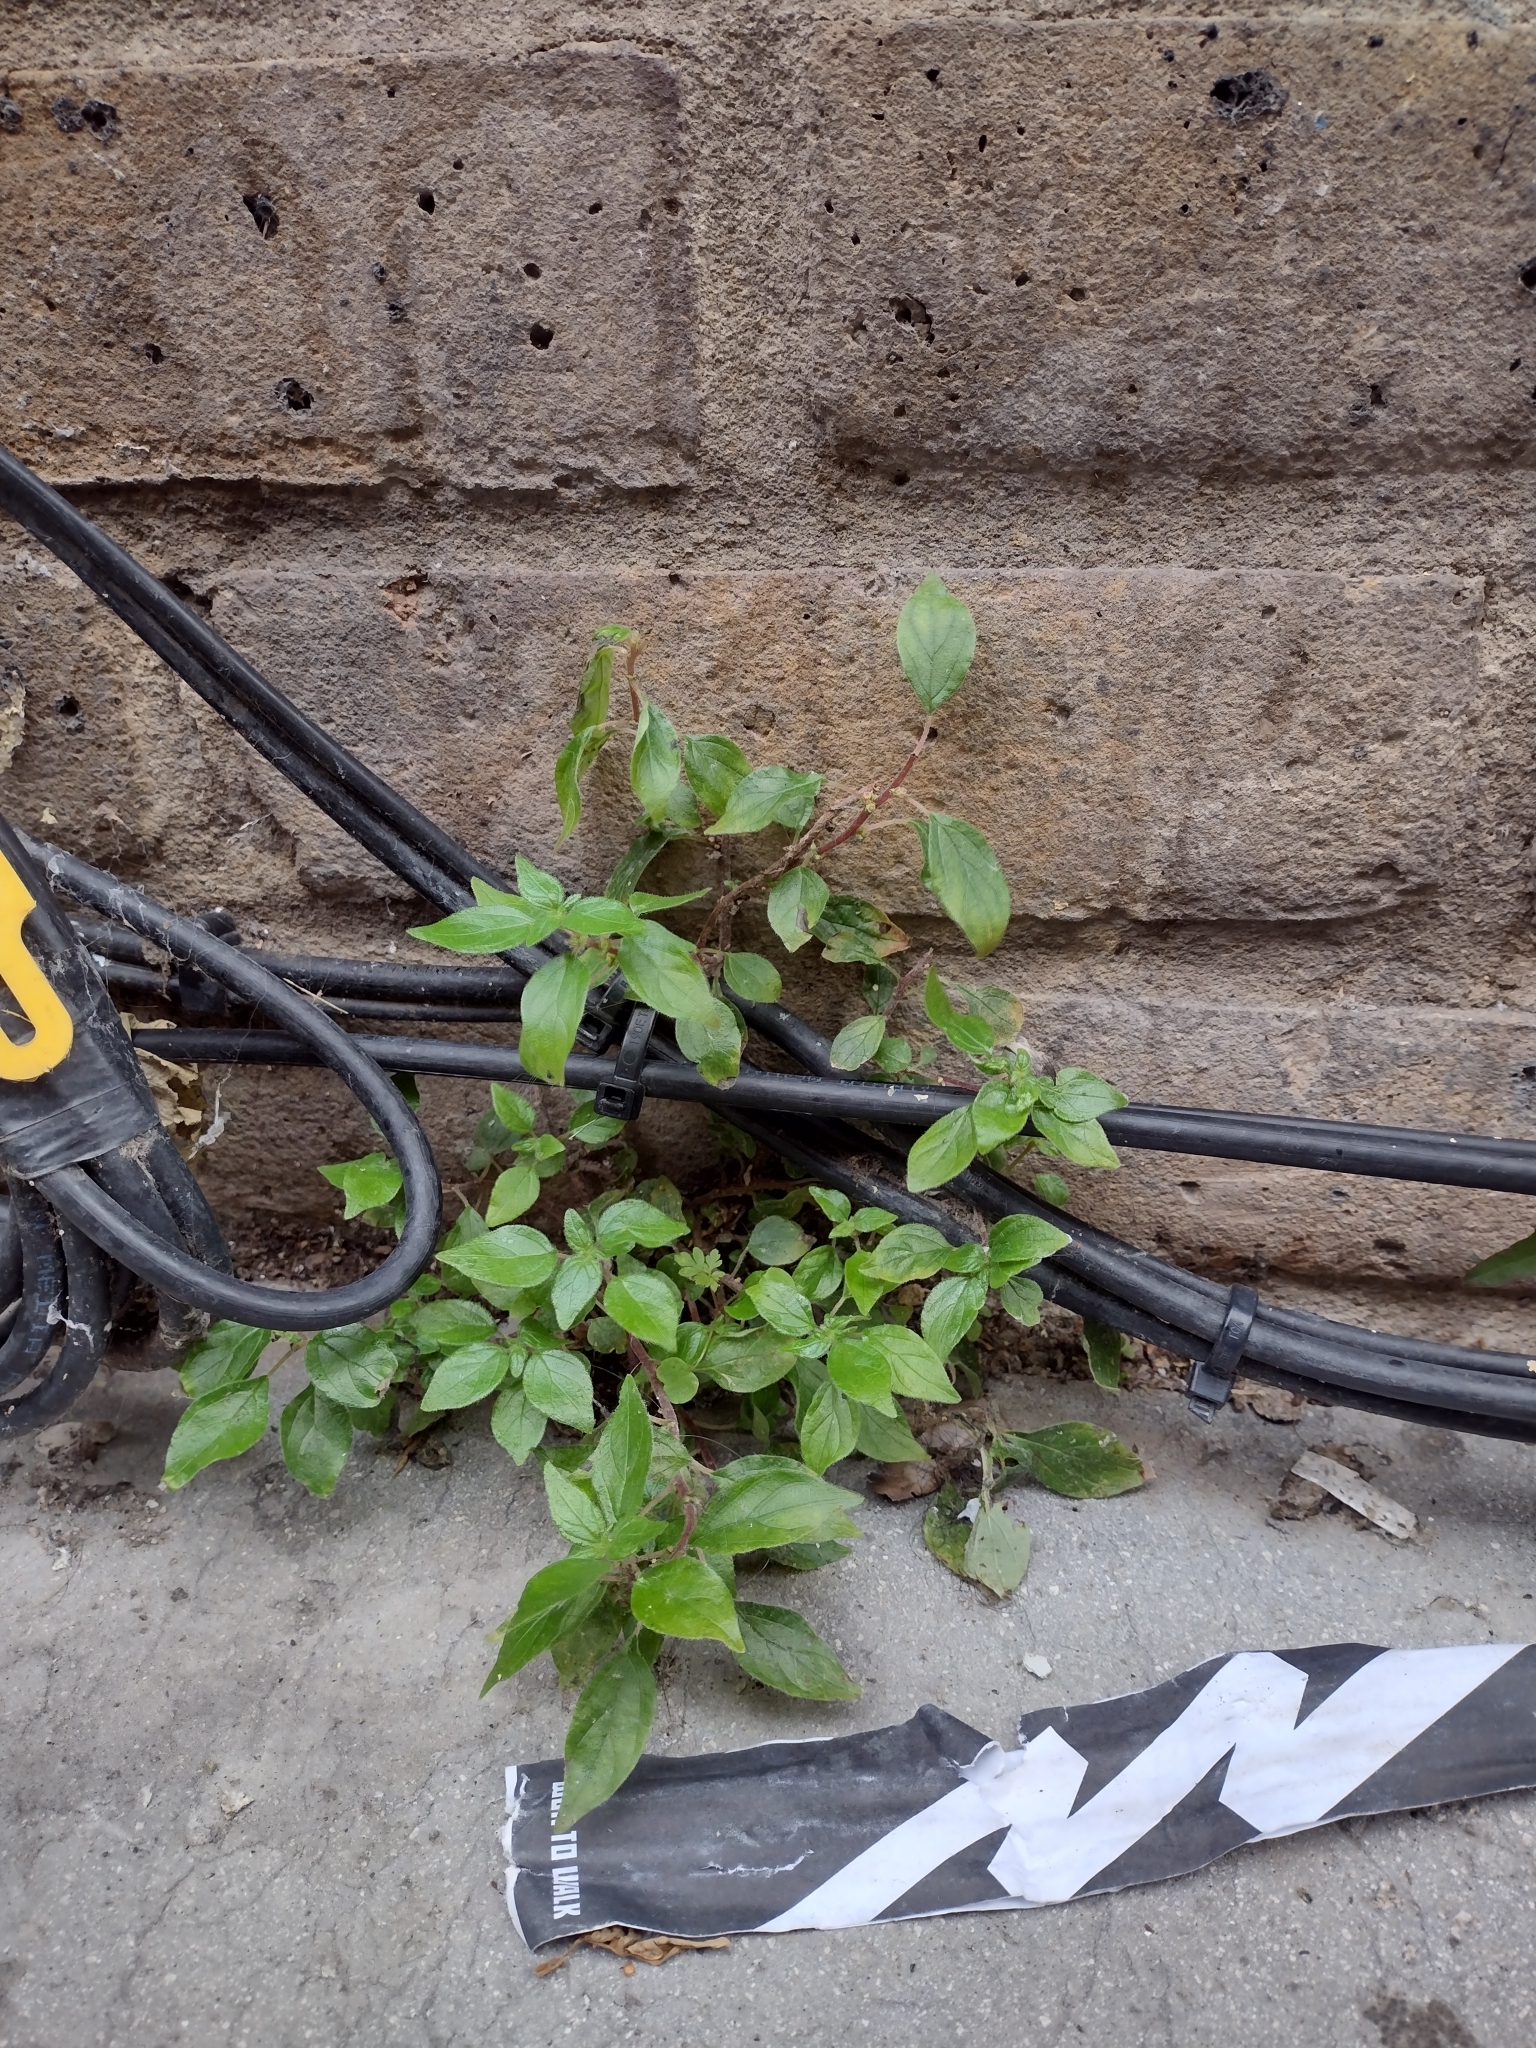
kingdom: Plantae
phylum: Tracheophyta
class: Magnoliopsida
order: Rosales
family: Urticaceae
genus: Parietaria
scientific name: Parietaria judaica
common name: Pellitory-of-the-wall
